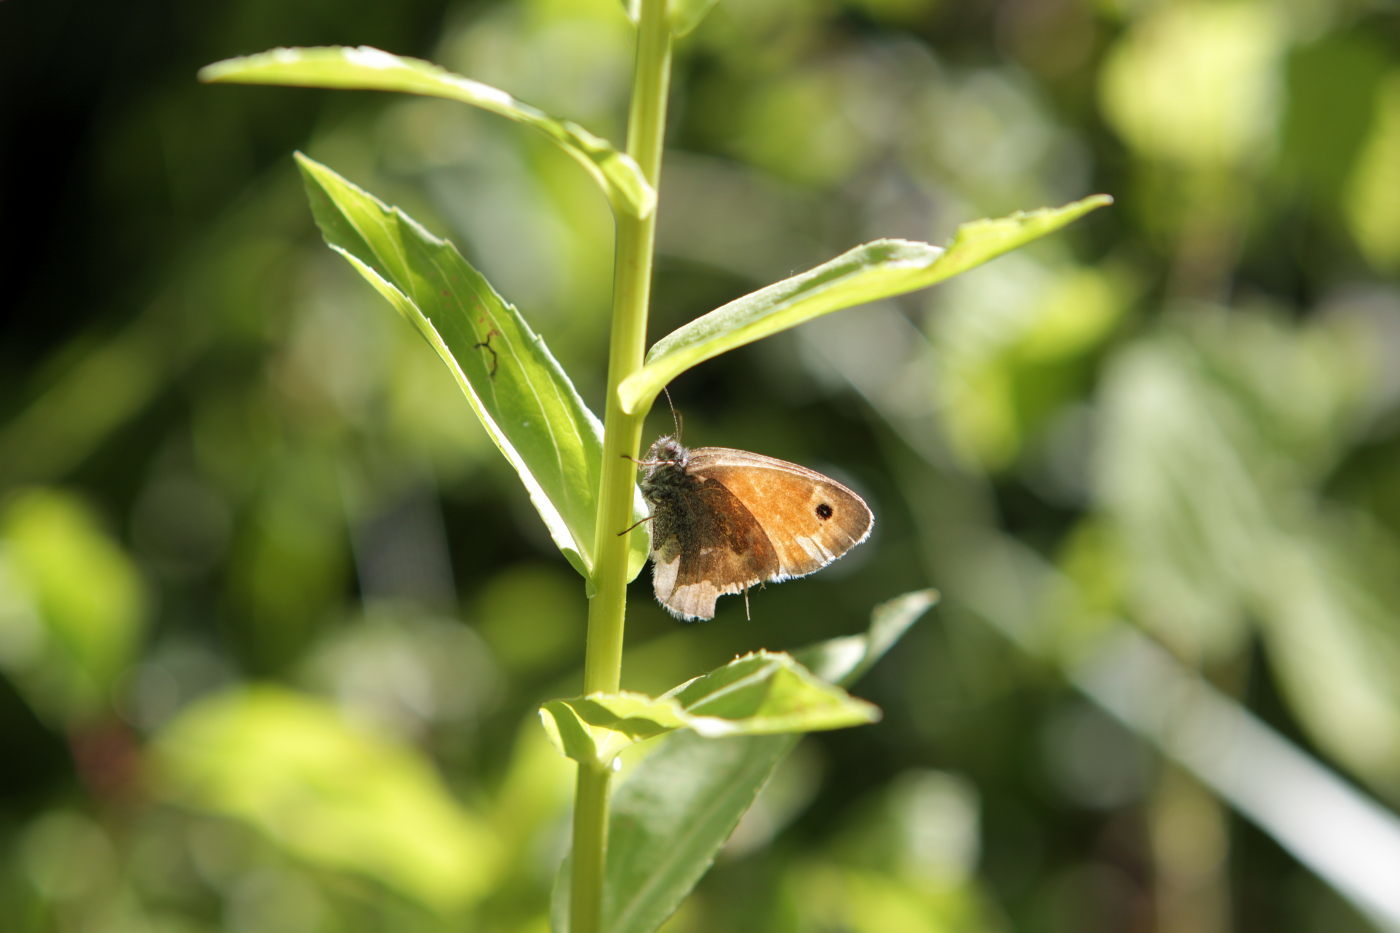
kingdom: Animalia
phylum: Arthropoda
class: Insecta
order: Lepidoptera
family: Nymphalidae
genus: Coenonympha
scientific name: Coenonympha pamphilus
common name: Small heath
